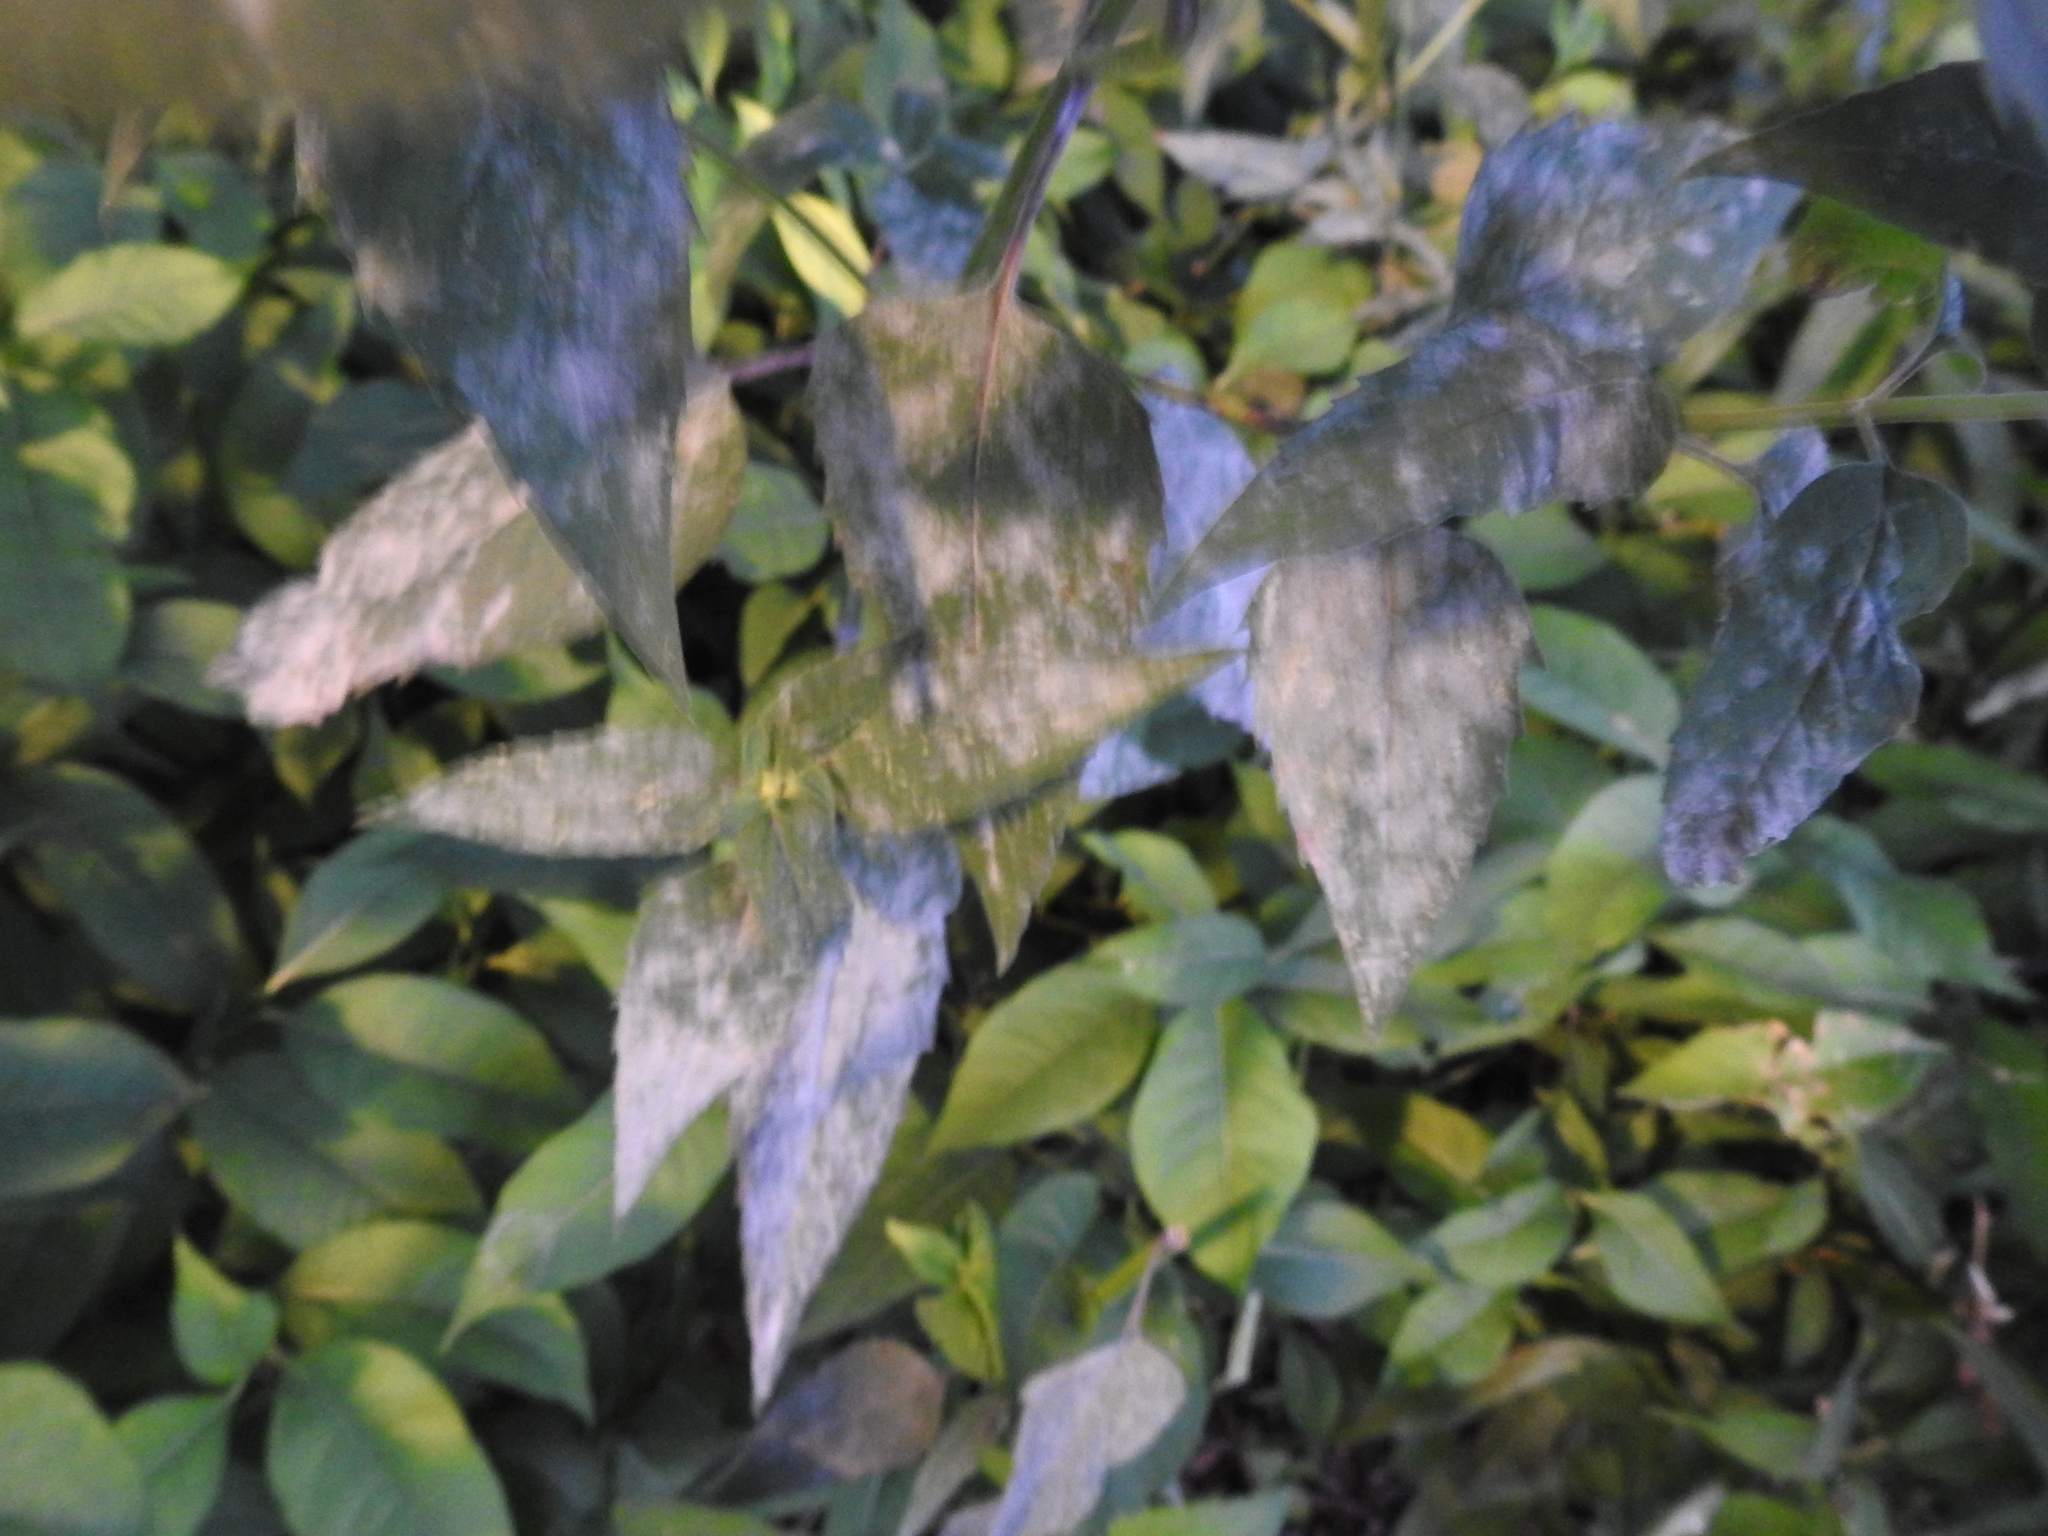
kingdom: Fungi
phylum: Ascomycota
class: Leotiomycetes
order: Helotiales
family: Erysiphaceae
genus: Golovinomyces
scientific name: Golovinomyces monardae
